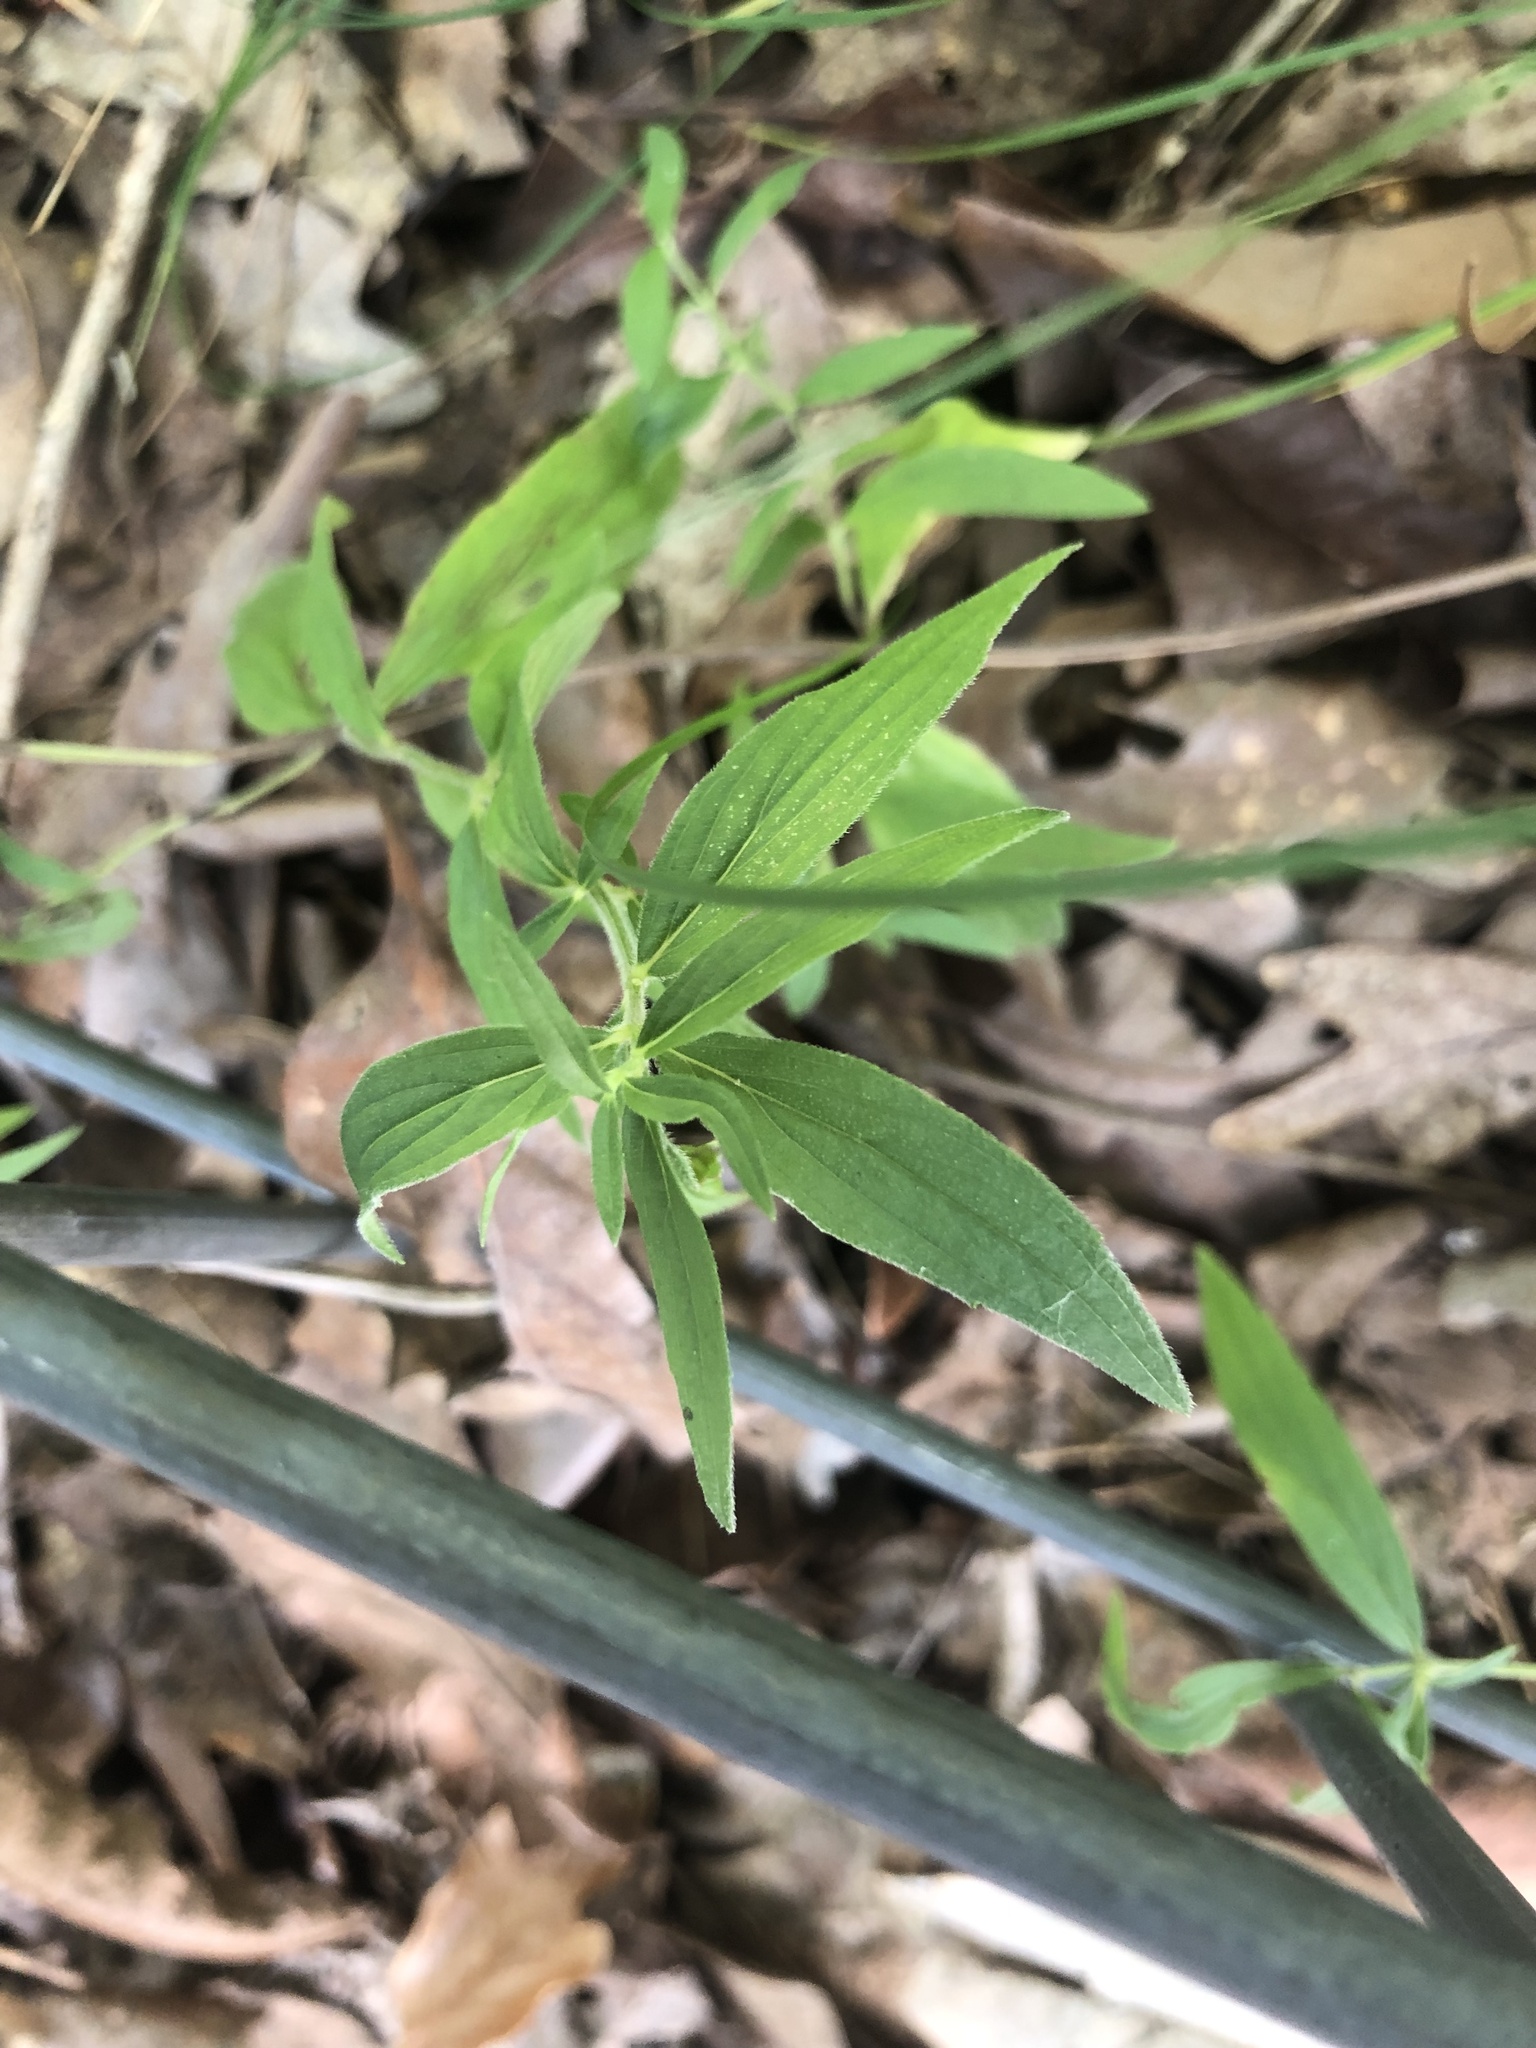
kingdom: Plantae
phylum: Tracheophyta
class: Magnoliopsida
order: Lamiales
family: Lamiaceae
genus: Pycnanthemum
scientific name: Pycnanthemum torreyi
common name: Torrey's mountain-mint
